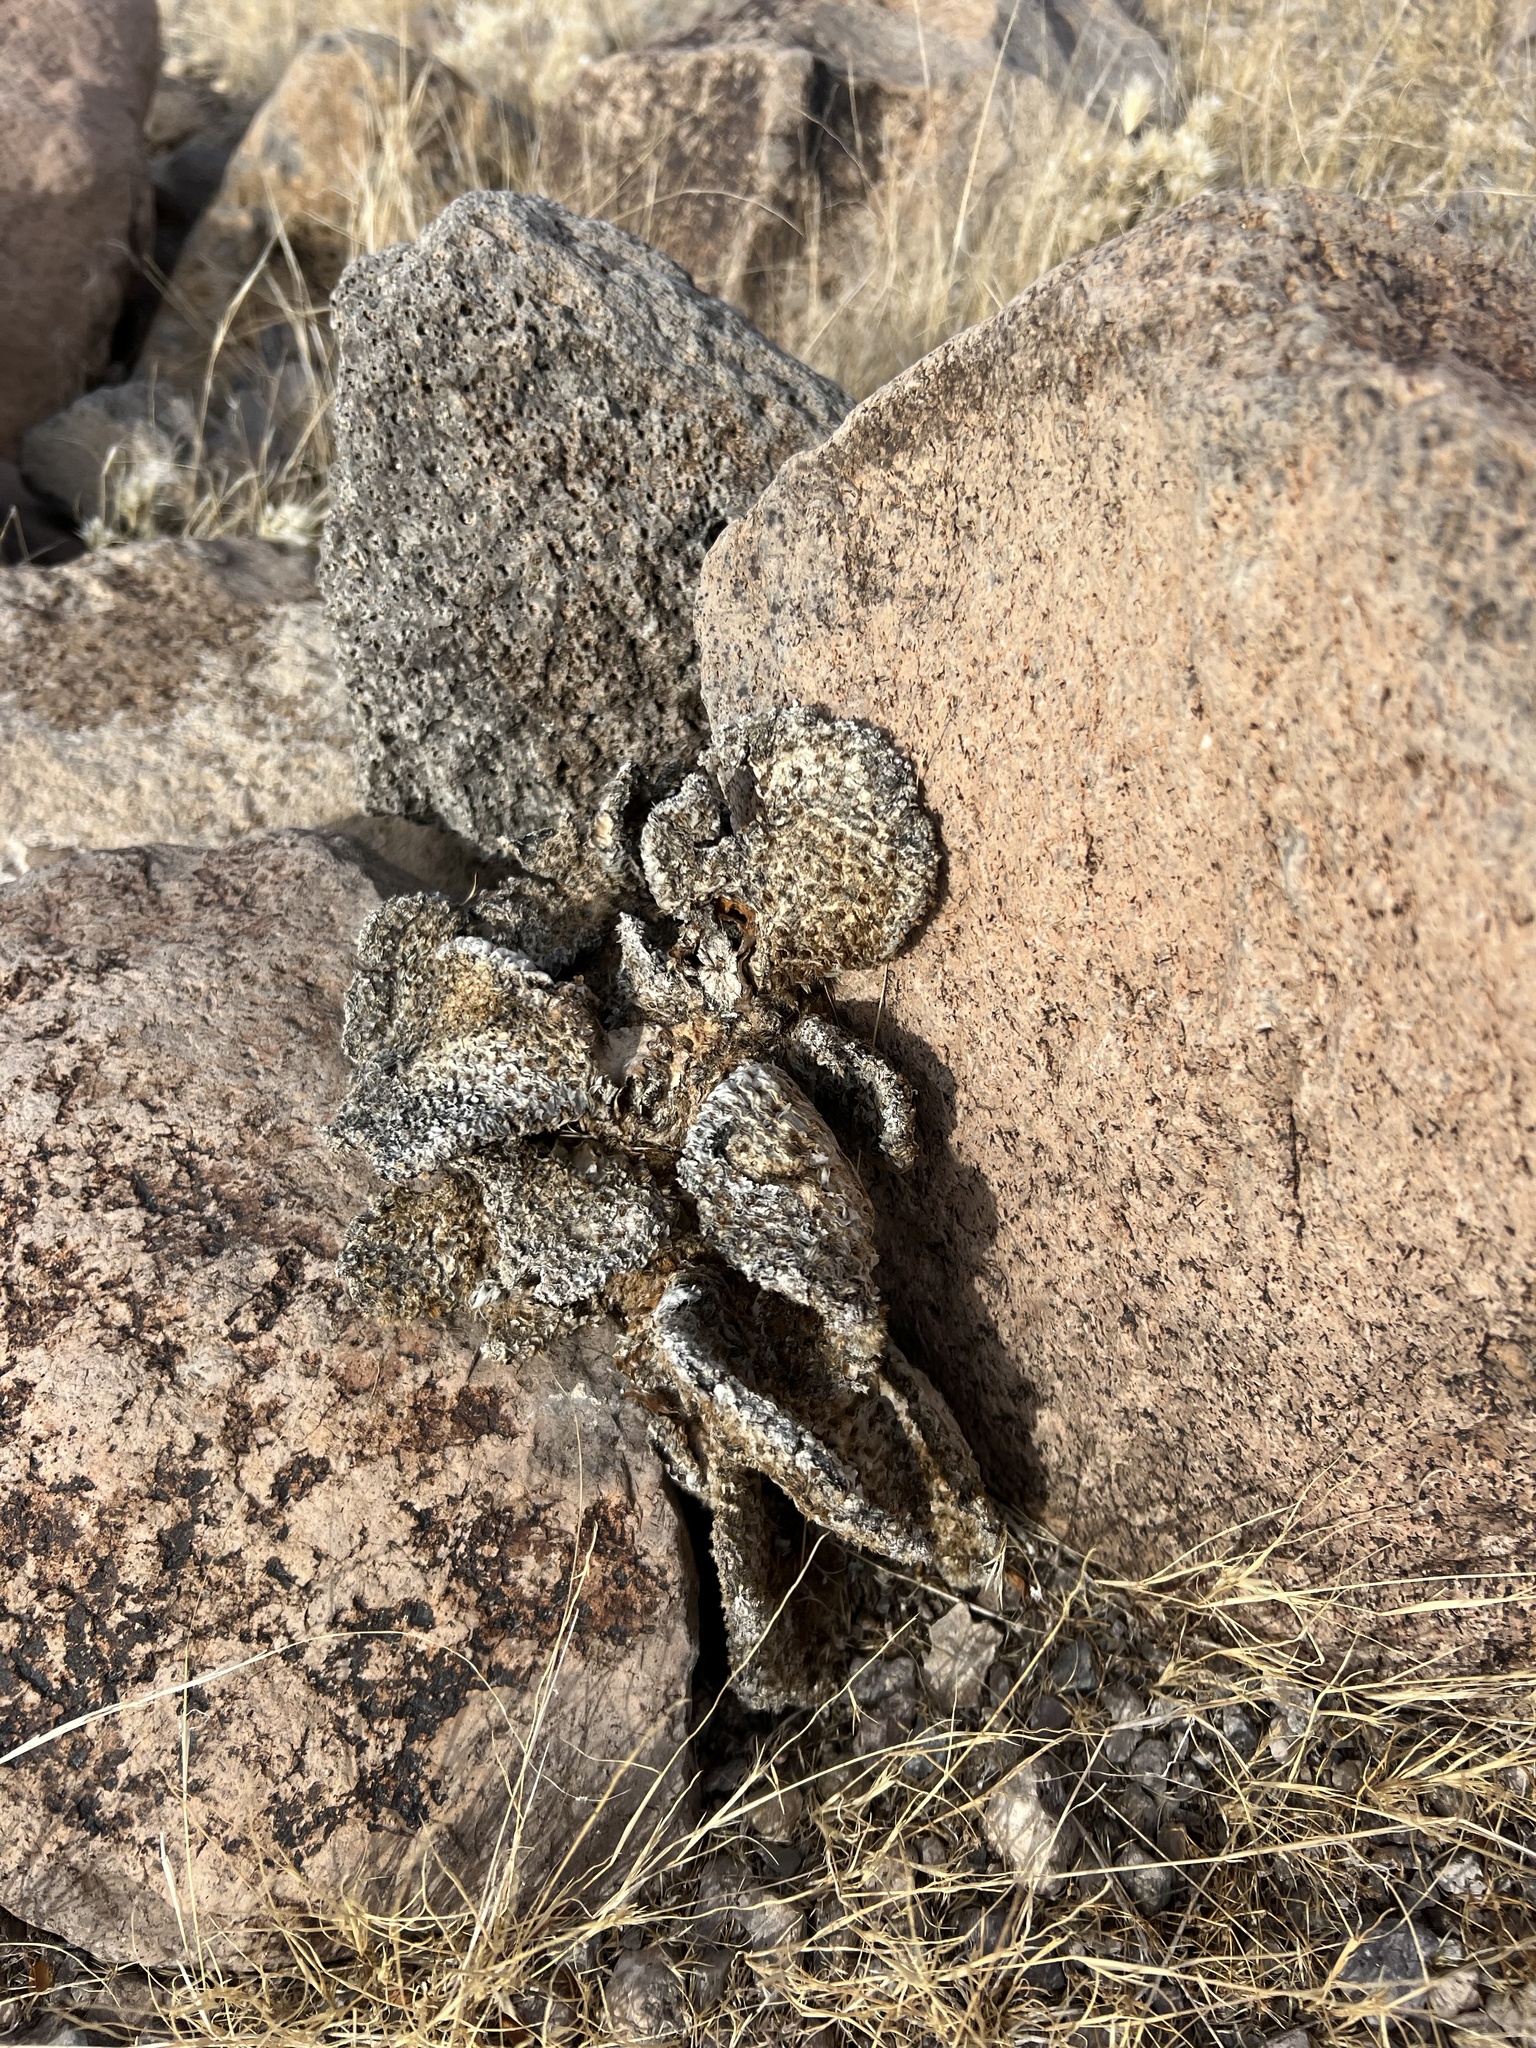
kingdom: Plantae
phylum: Tracheophyta
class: Magnoliopsida
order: Caryophyllales
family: Cactaceae
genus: Opuntia
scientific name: Opuntia basilaris
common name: Beavertail prickly-pear
